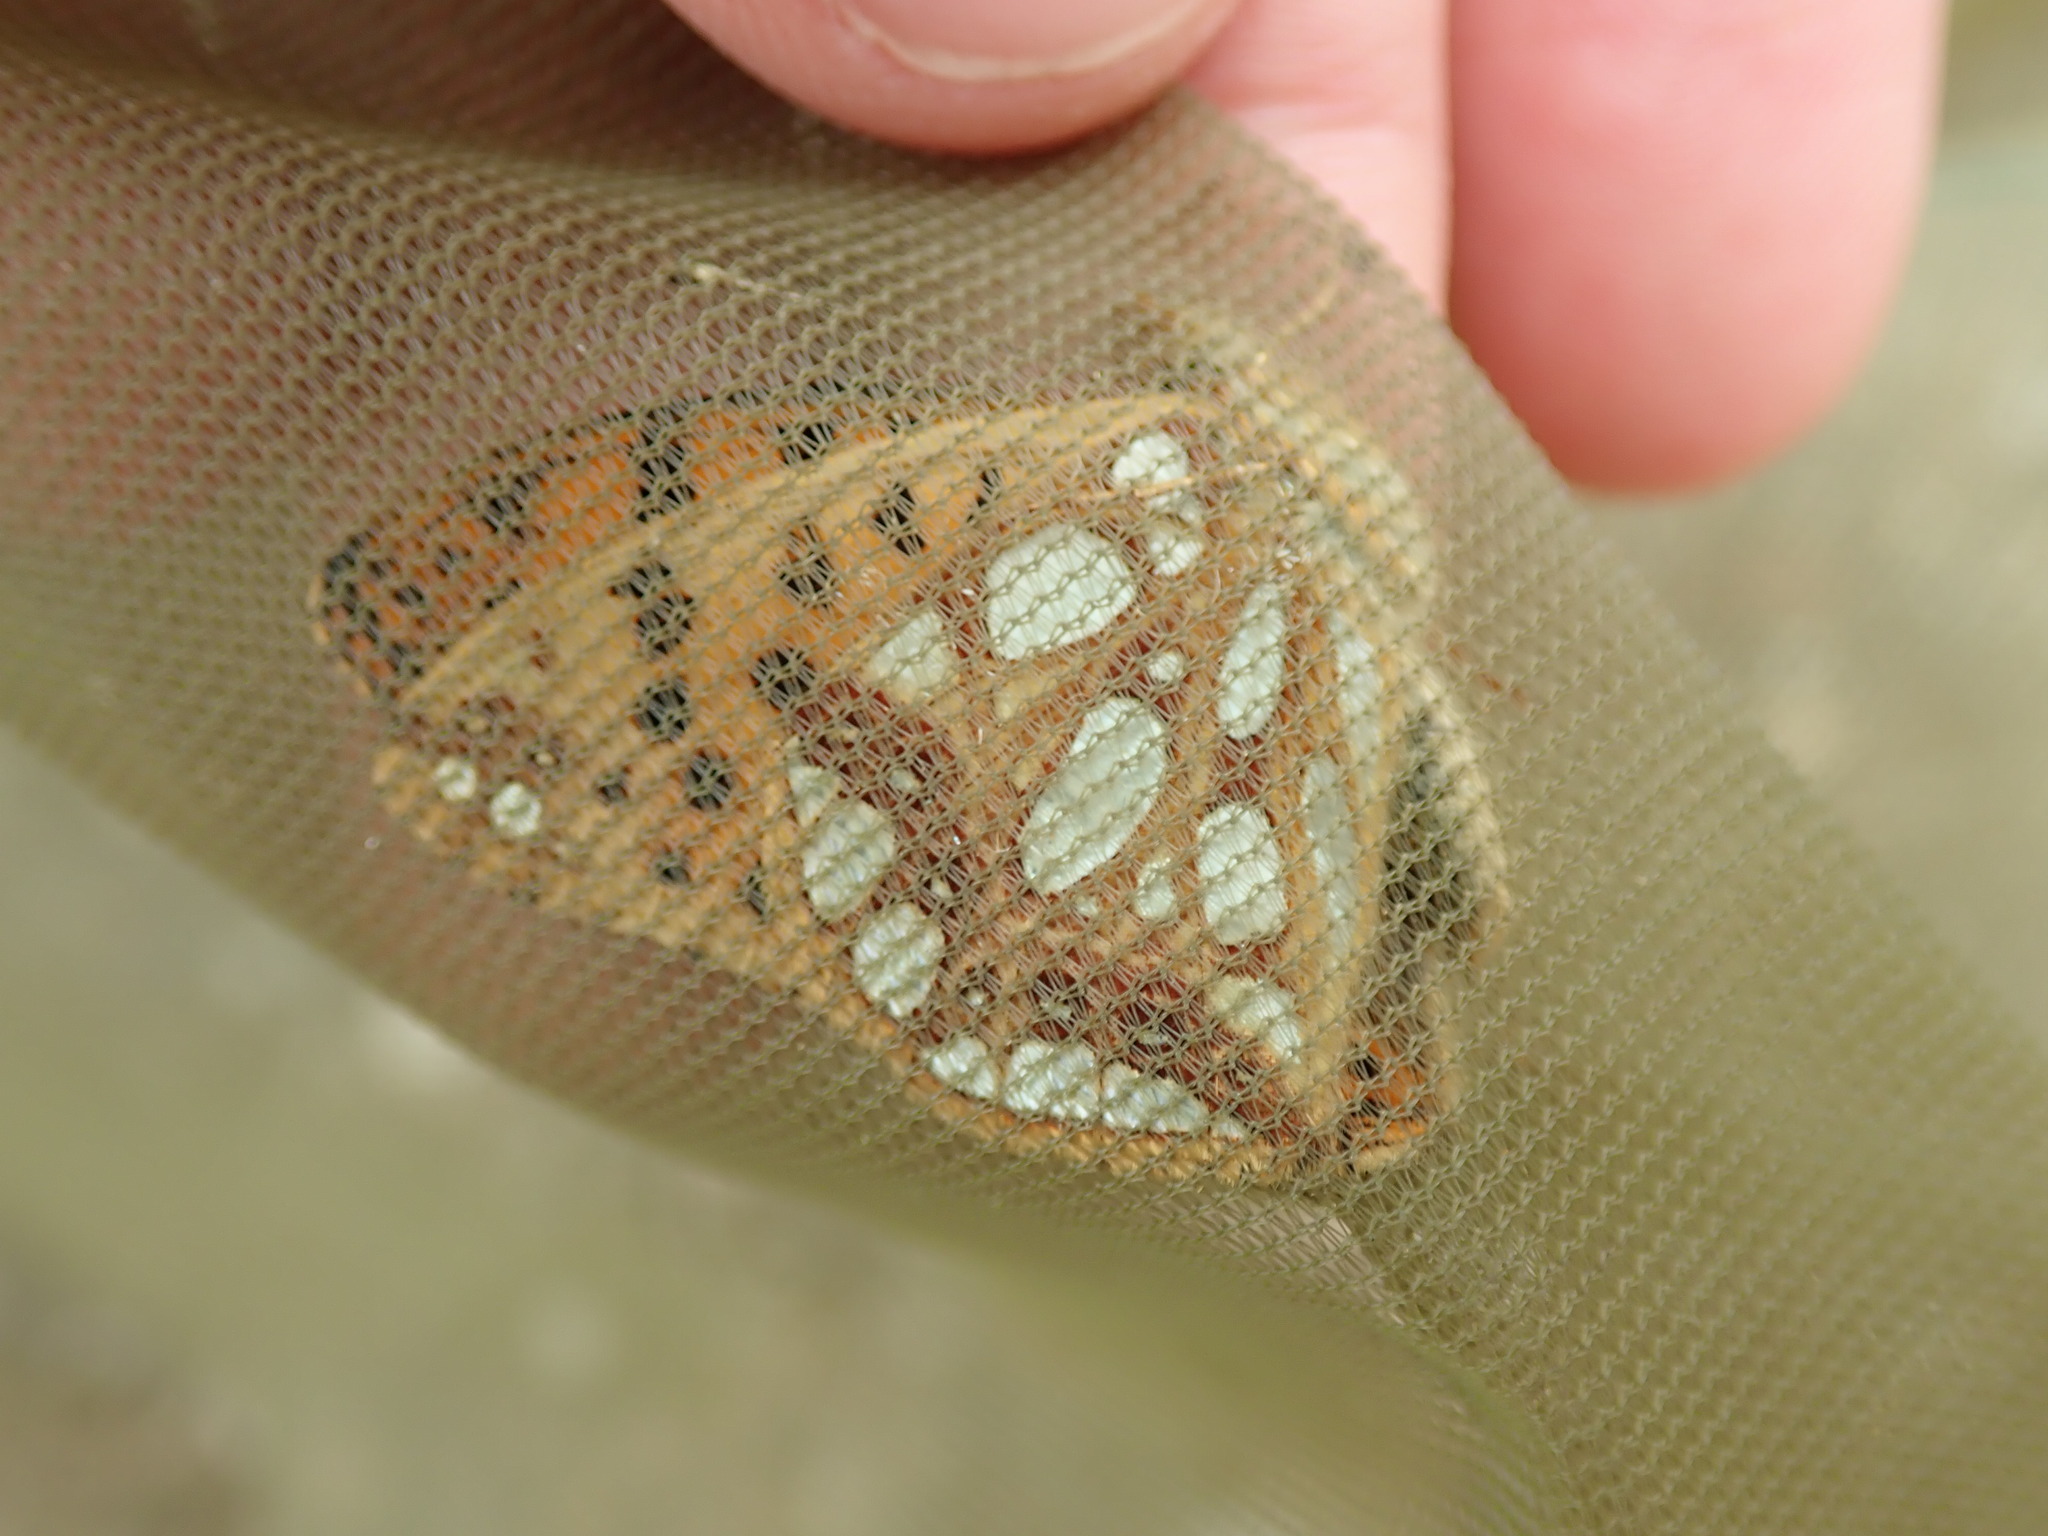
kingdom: Animalia
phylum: Arthropoda
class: Insecta
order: Lepidoptera
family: Nymphalidae
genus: Issoria
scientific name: Issoria lathonia
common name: Queen of spain fritillary
